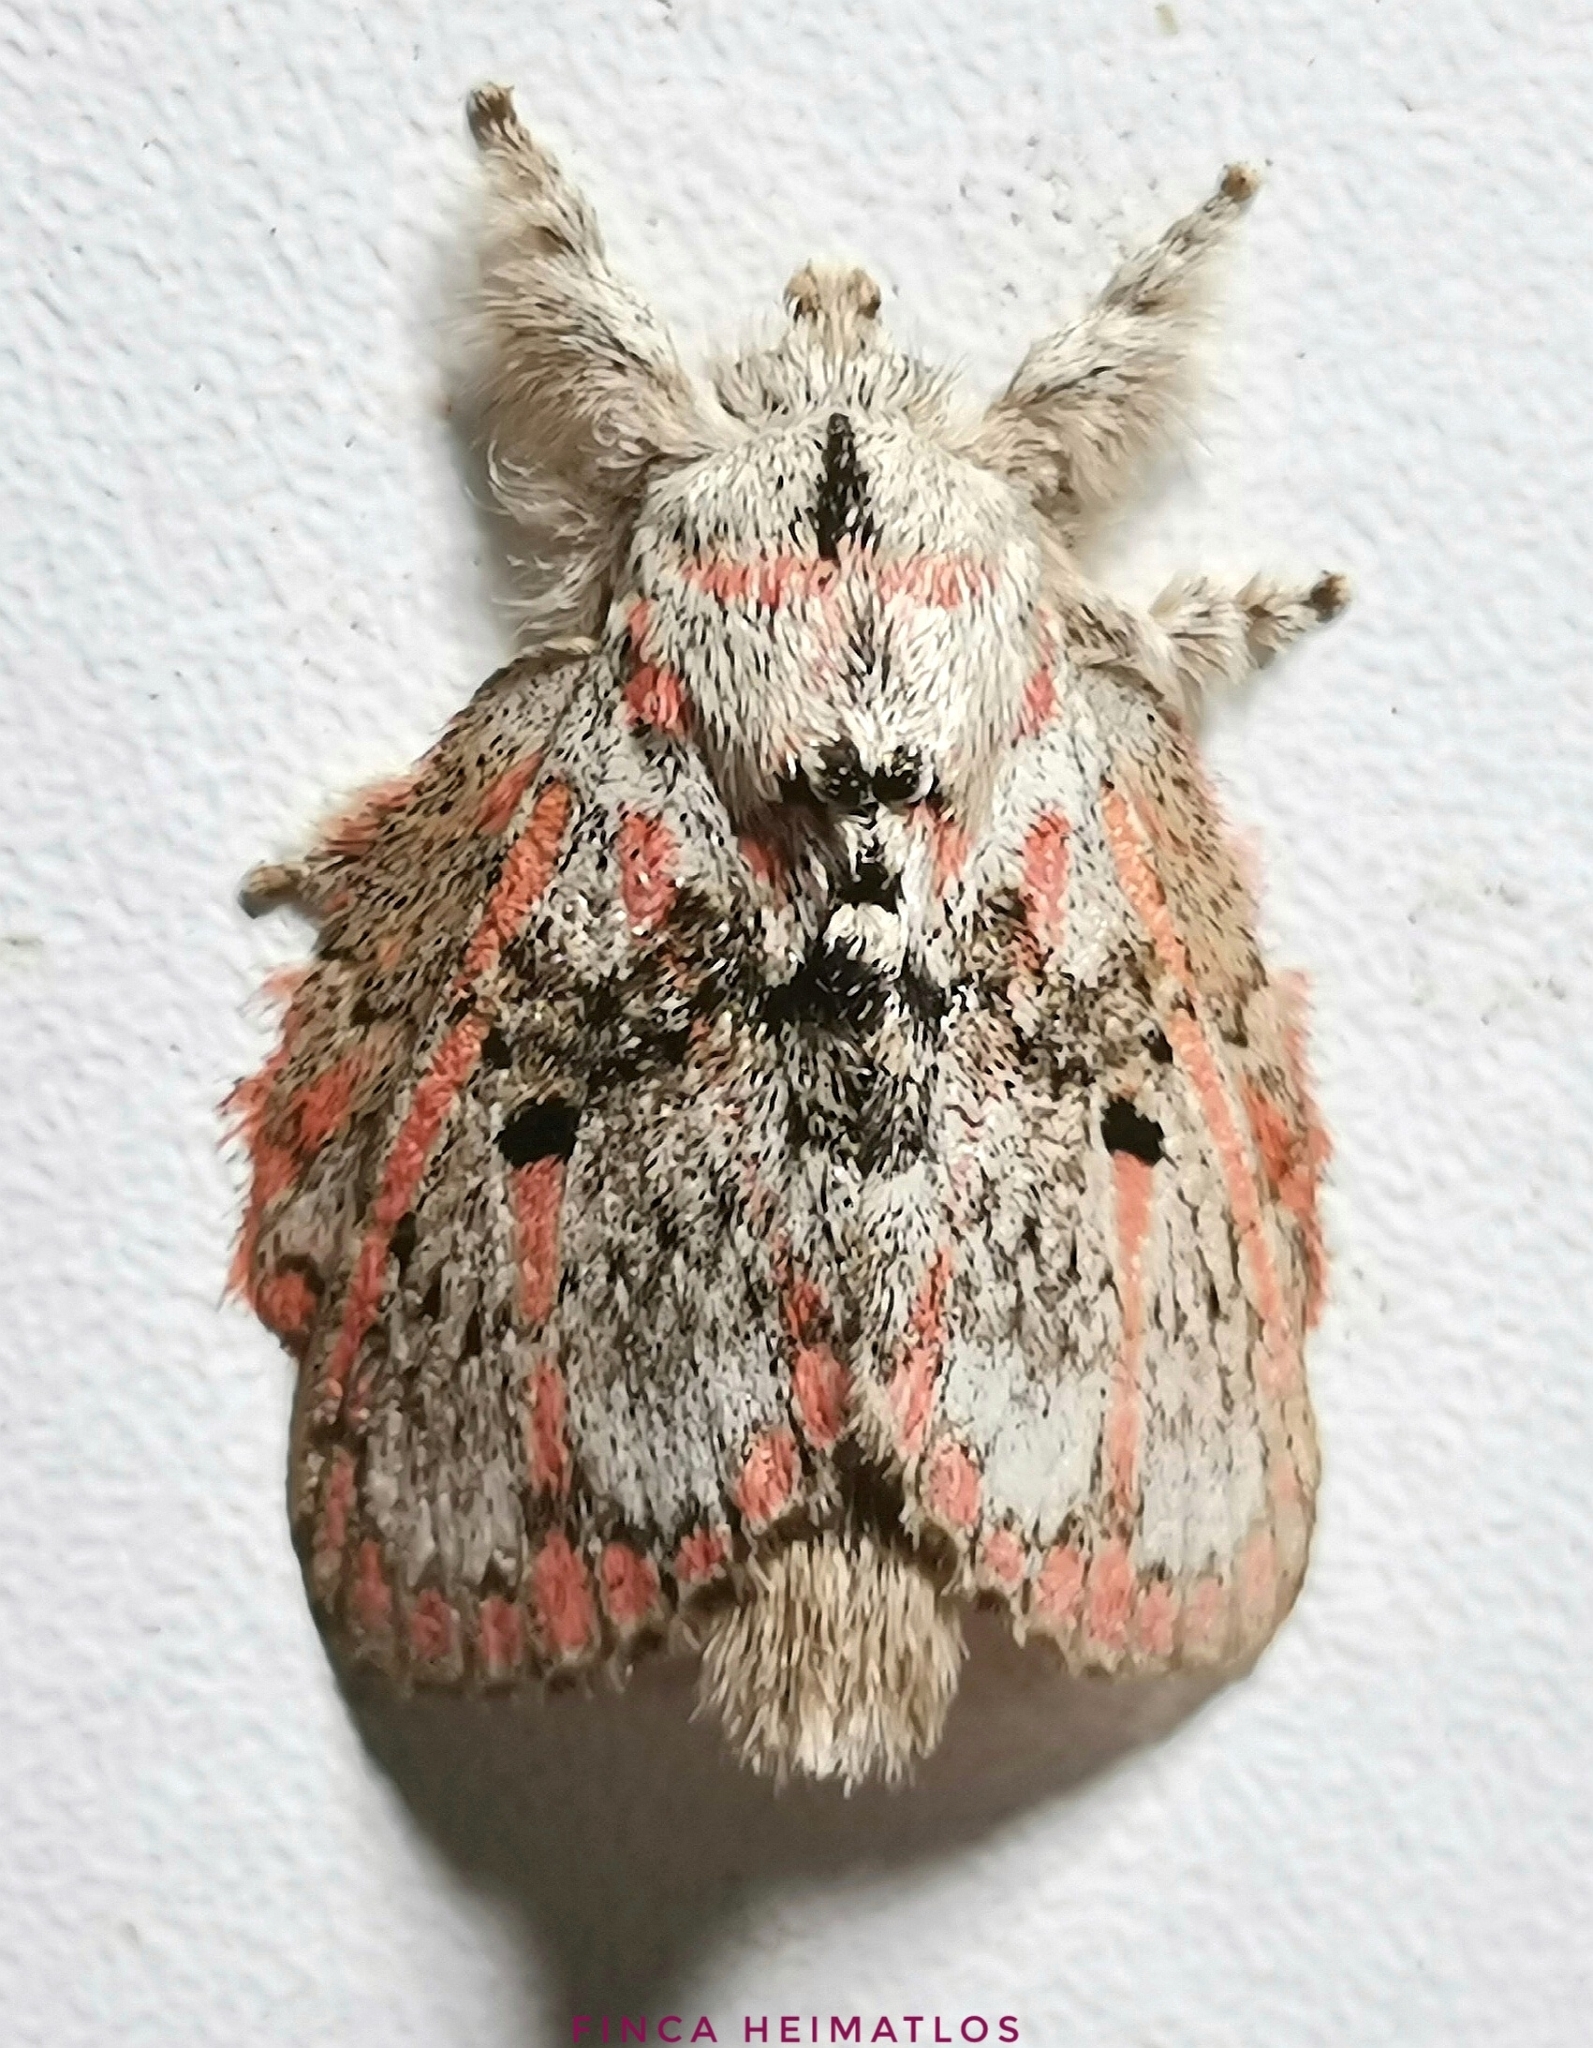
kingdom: Animalia
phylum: Arthropoda
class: Insecta
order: Lepidoptera
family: Lasiocampidae
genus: Euglyphis
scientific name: Euglyphis gibea
